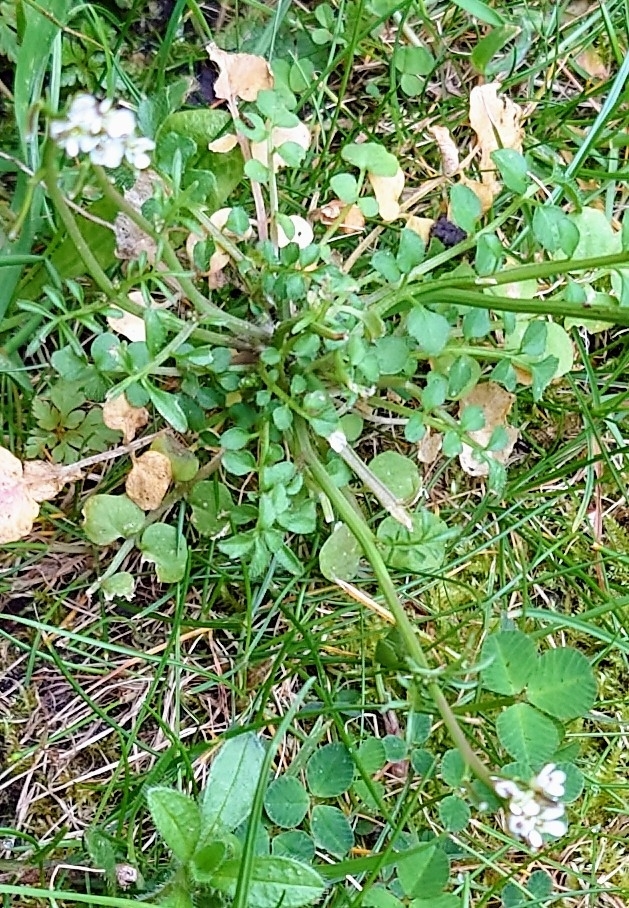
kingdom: Plantae
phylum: Tracheophyta
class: Magnoliopsida
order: Brassicales
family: Brassicaceae
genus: Cardamine
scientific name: Cardamine hirsuta
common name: Hairy bittercress
